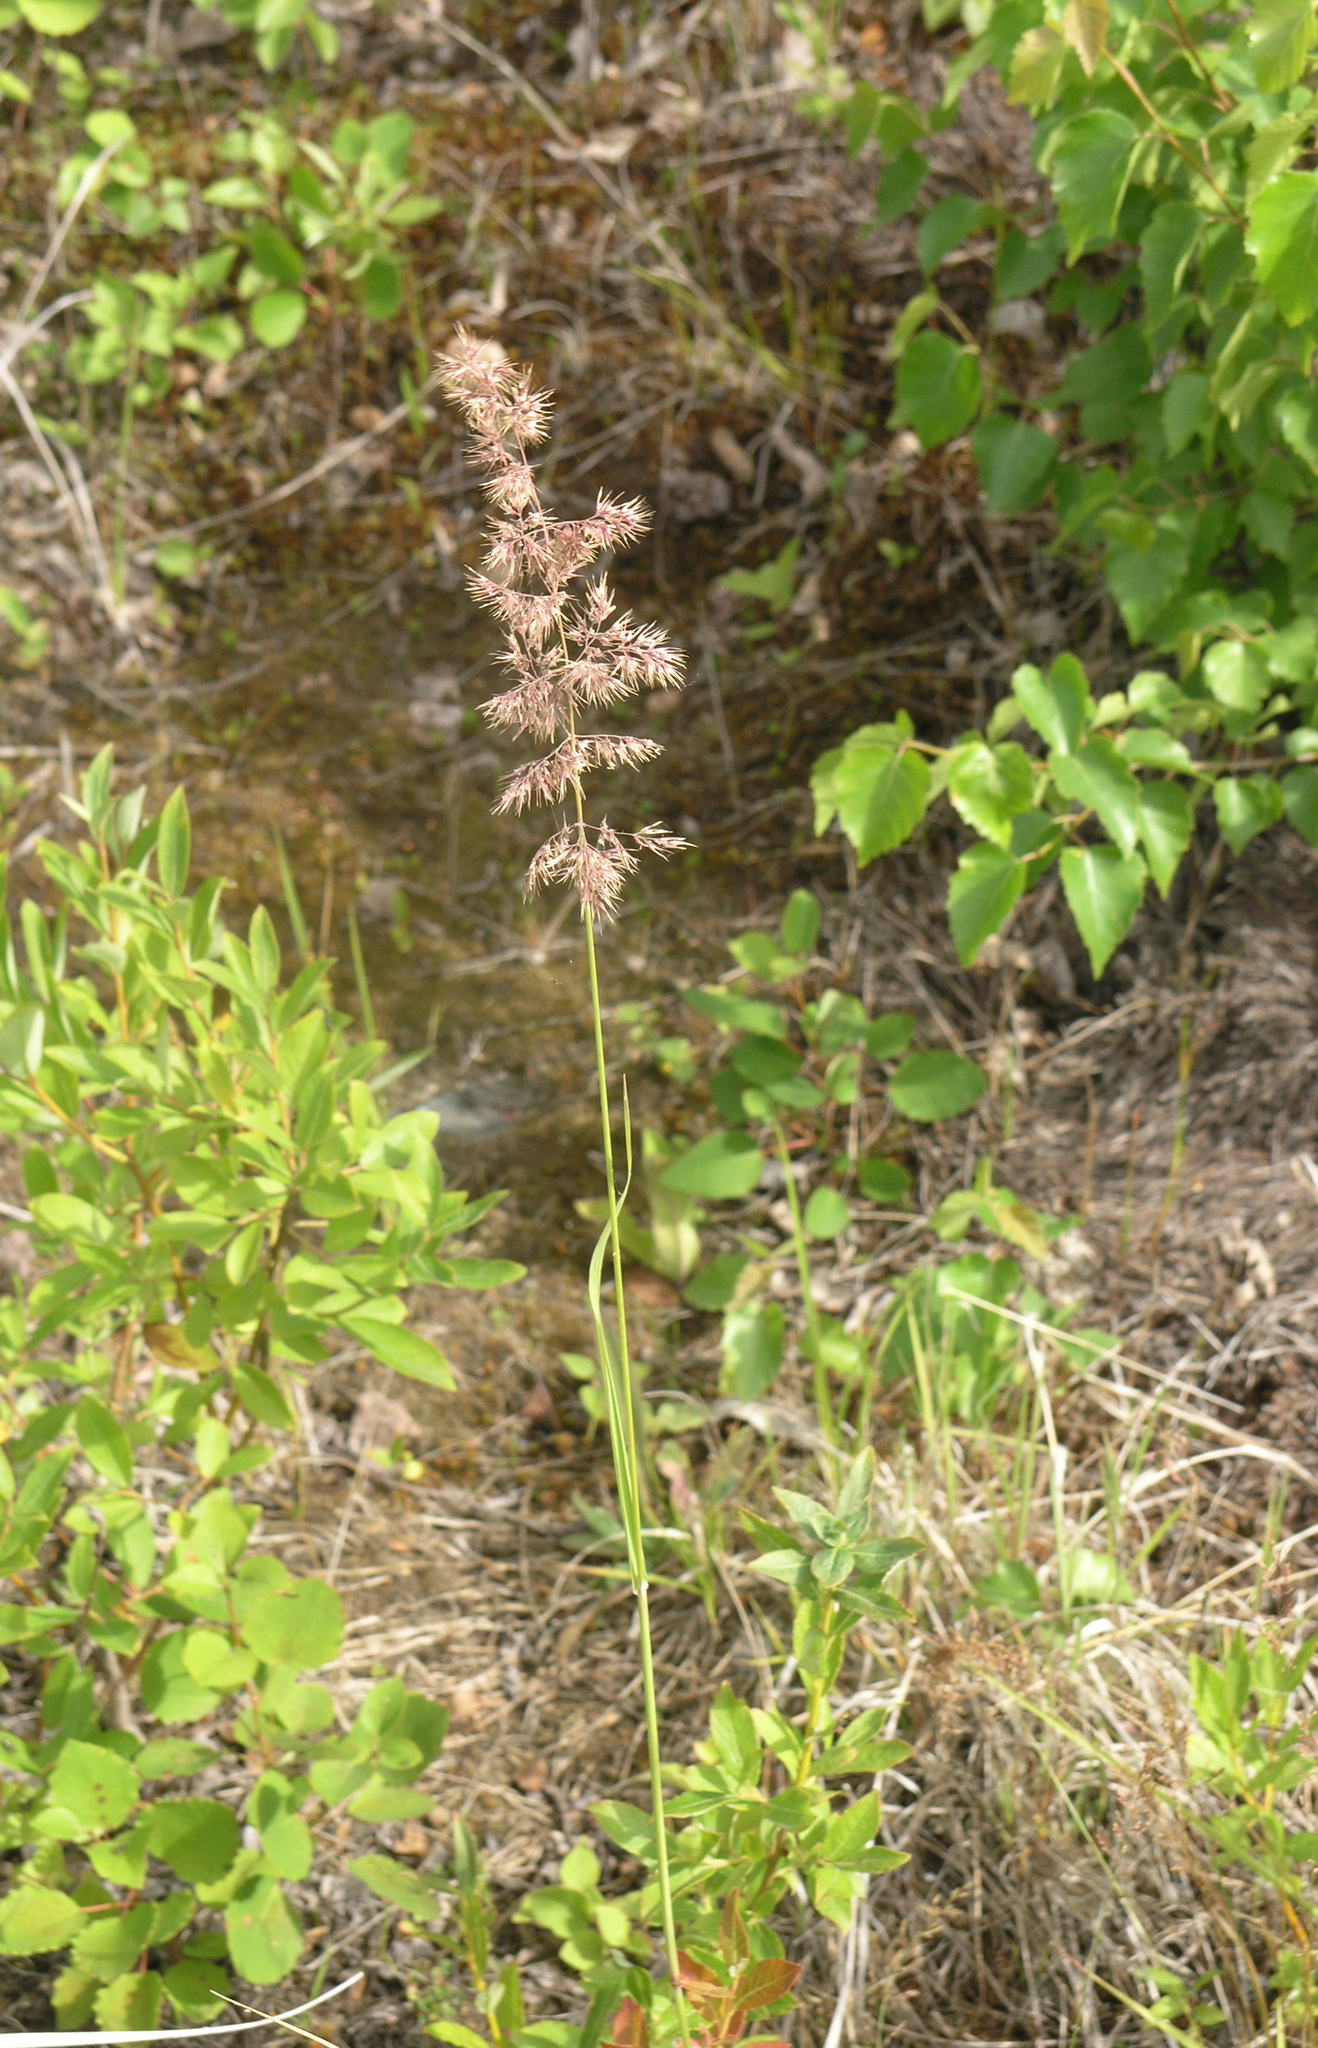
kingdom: Plantae
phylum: Tracheophyta
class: Liliopsida
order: Poales
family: Poaceae
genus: Calamagrostis
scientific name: Calamagrostis epigejos
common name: Wood small-reed
